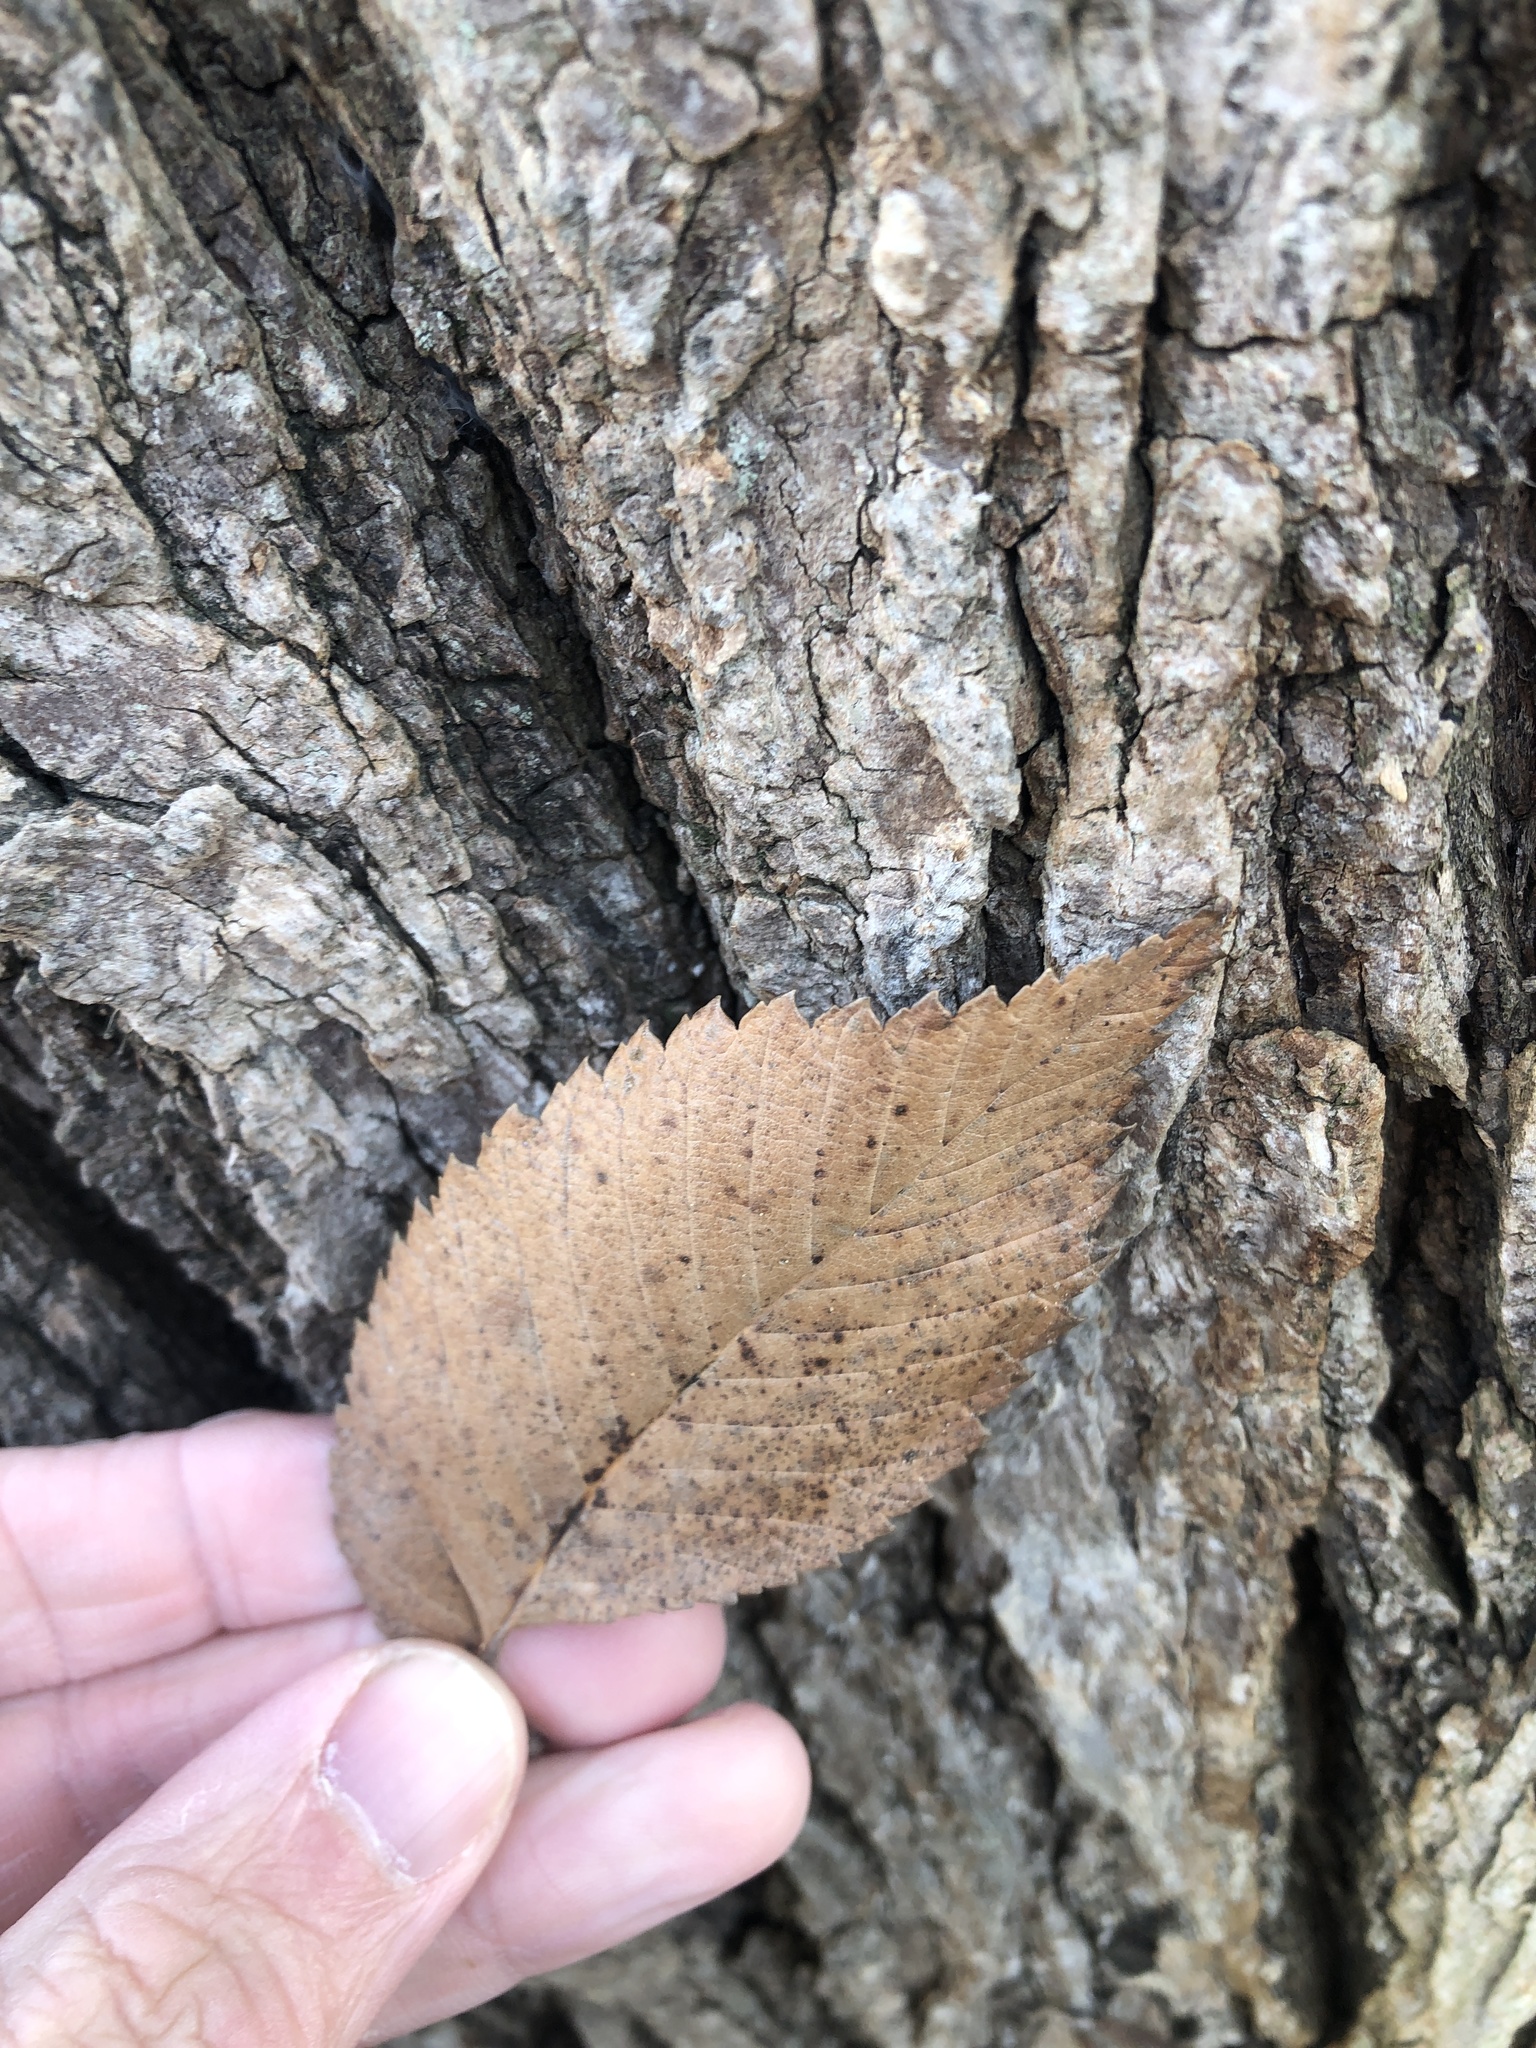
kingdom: Plantae
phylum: Tracheophyta
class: Magnoliopsida
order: Rosales
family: Ulmaceae
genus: Ulmus
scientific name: Ulmus americana
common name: American elm
